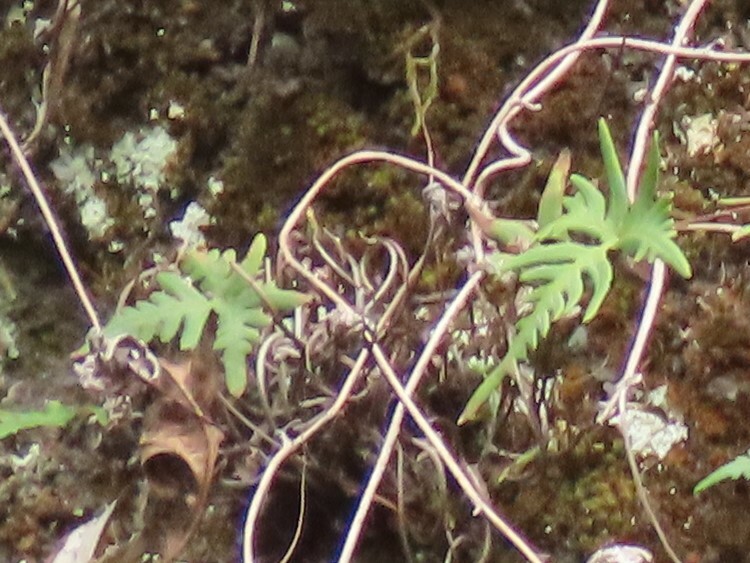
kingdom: Plantae
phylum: Tracheophyta
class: Polypodiopsida
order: Polypodiales
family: Pteridaceae
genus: Aleuritopteris
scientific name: Aleuritopteris argentea
